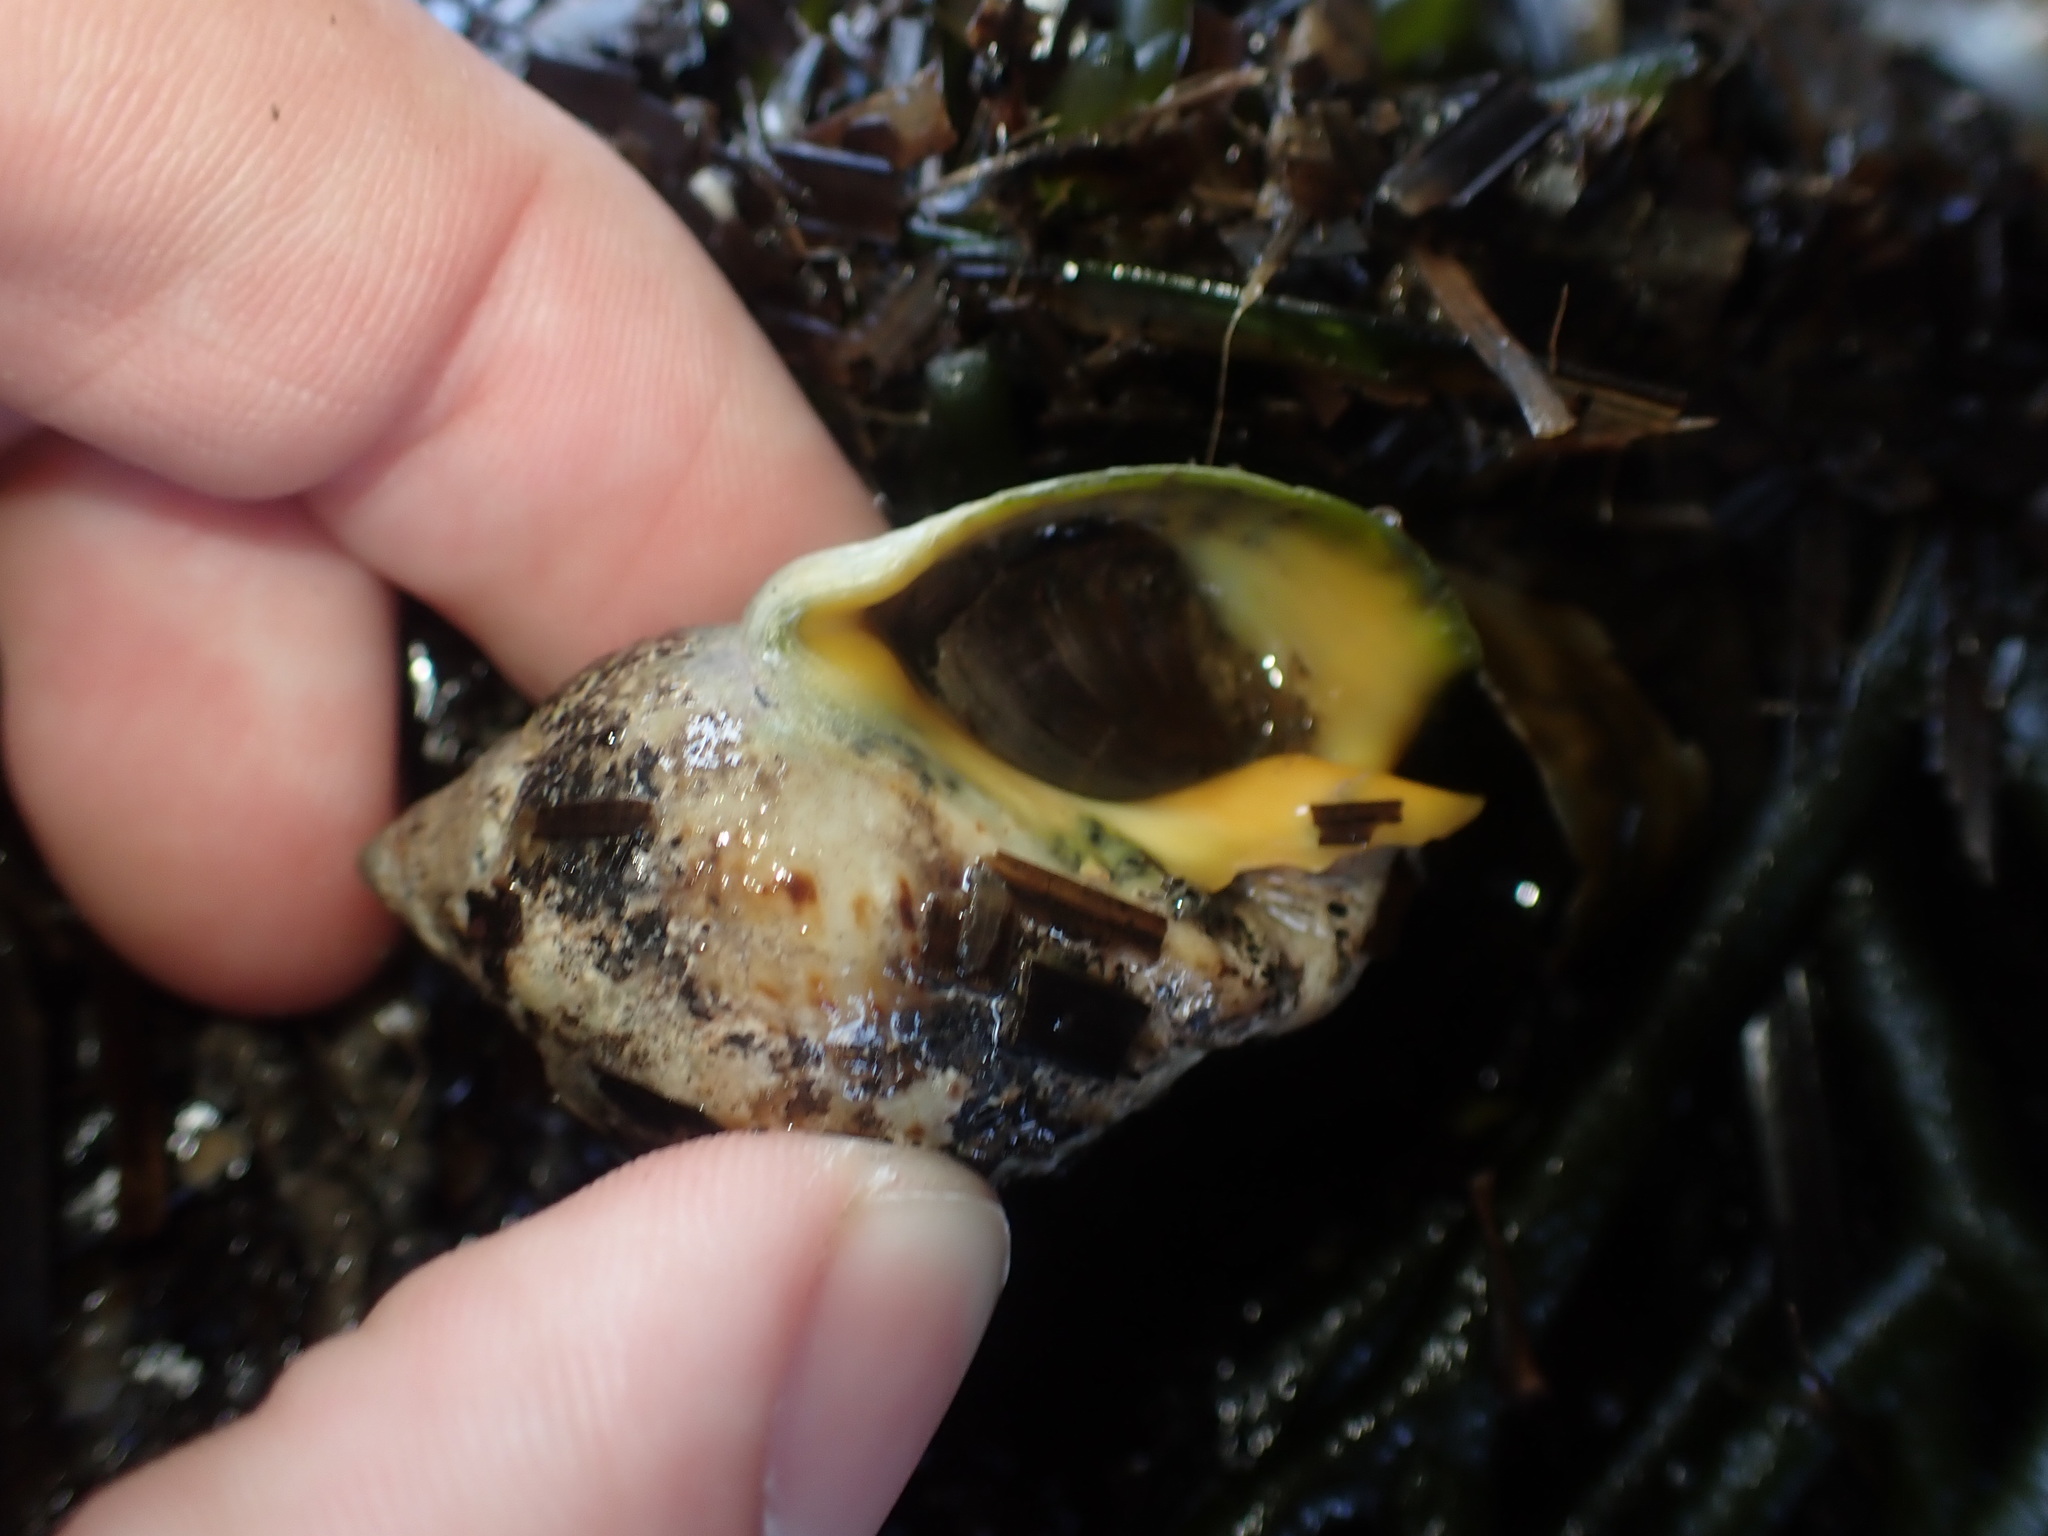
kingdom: Animalia
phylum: Mollusca
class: Gastropoda
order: Neogastropoda
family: Cominellidae
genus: Cominella
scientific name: Cominella adspersa
